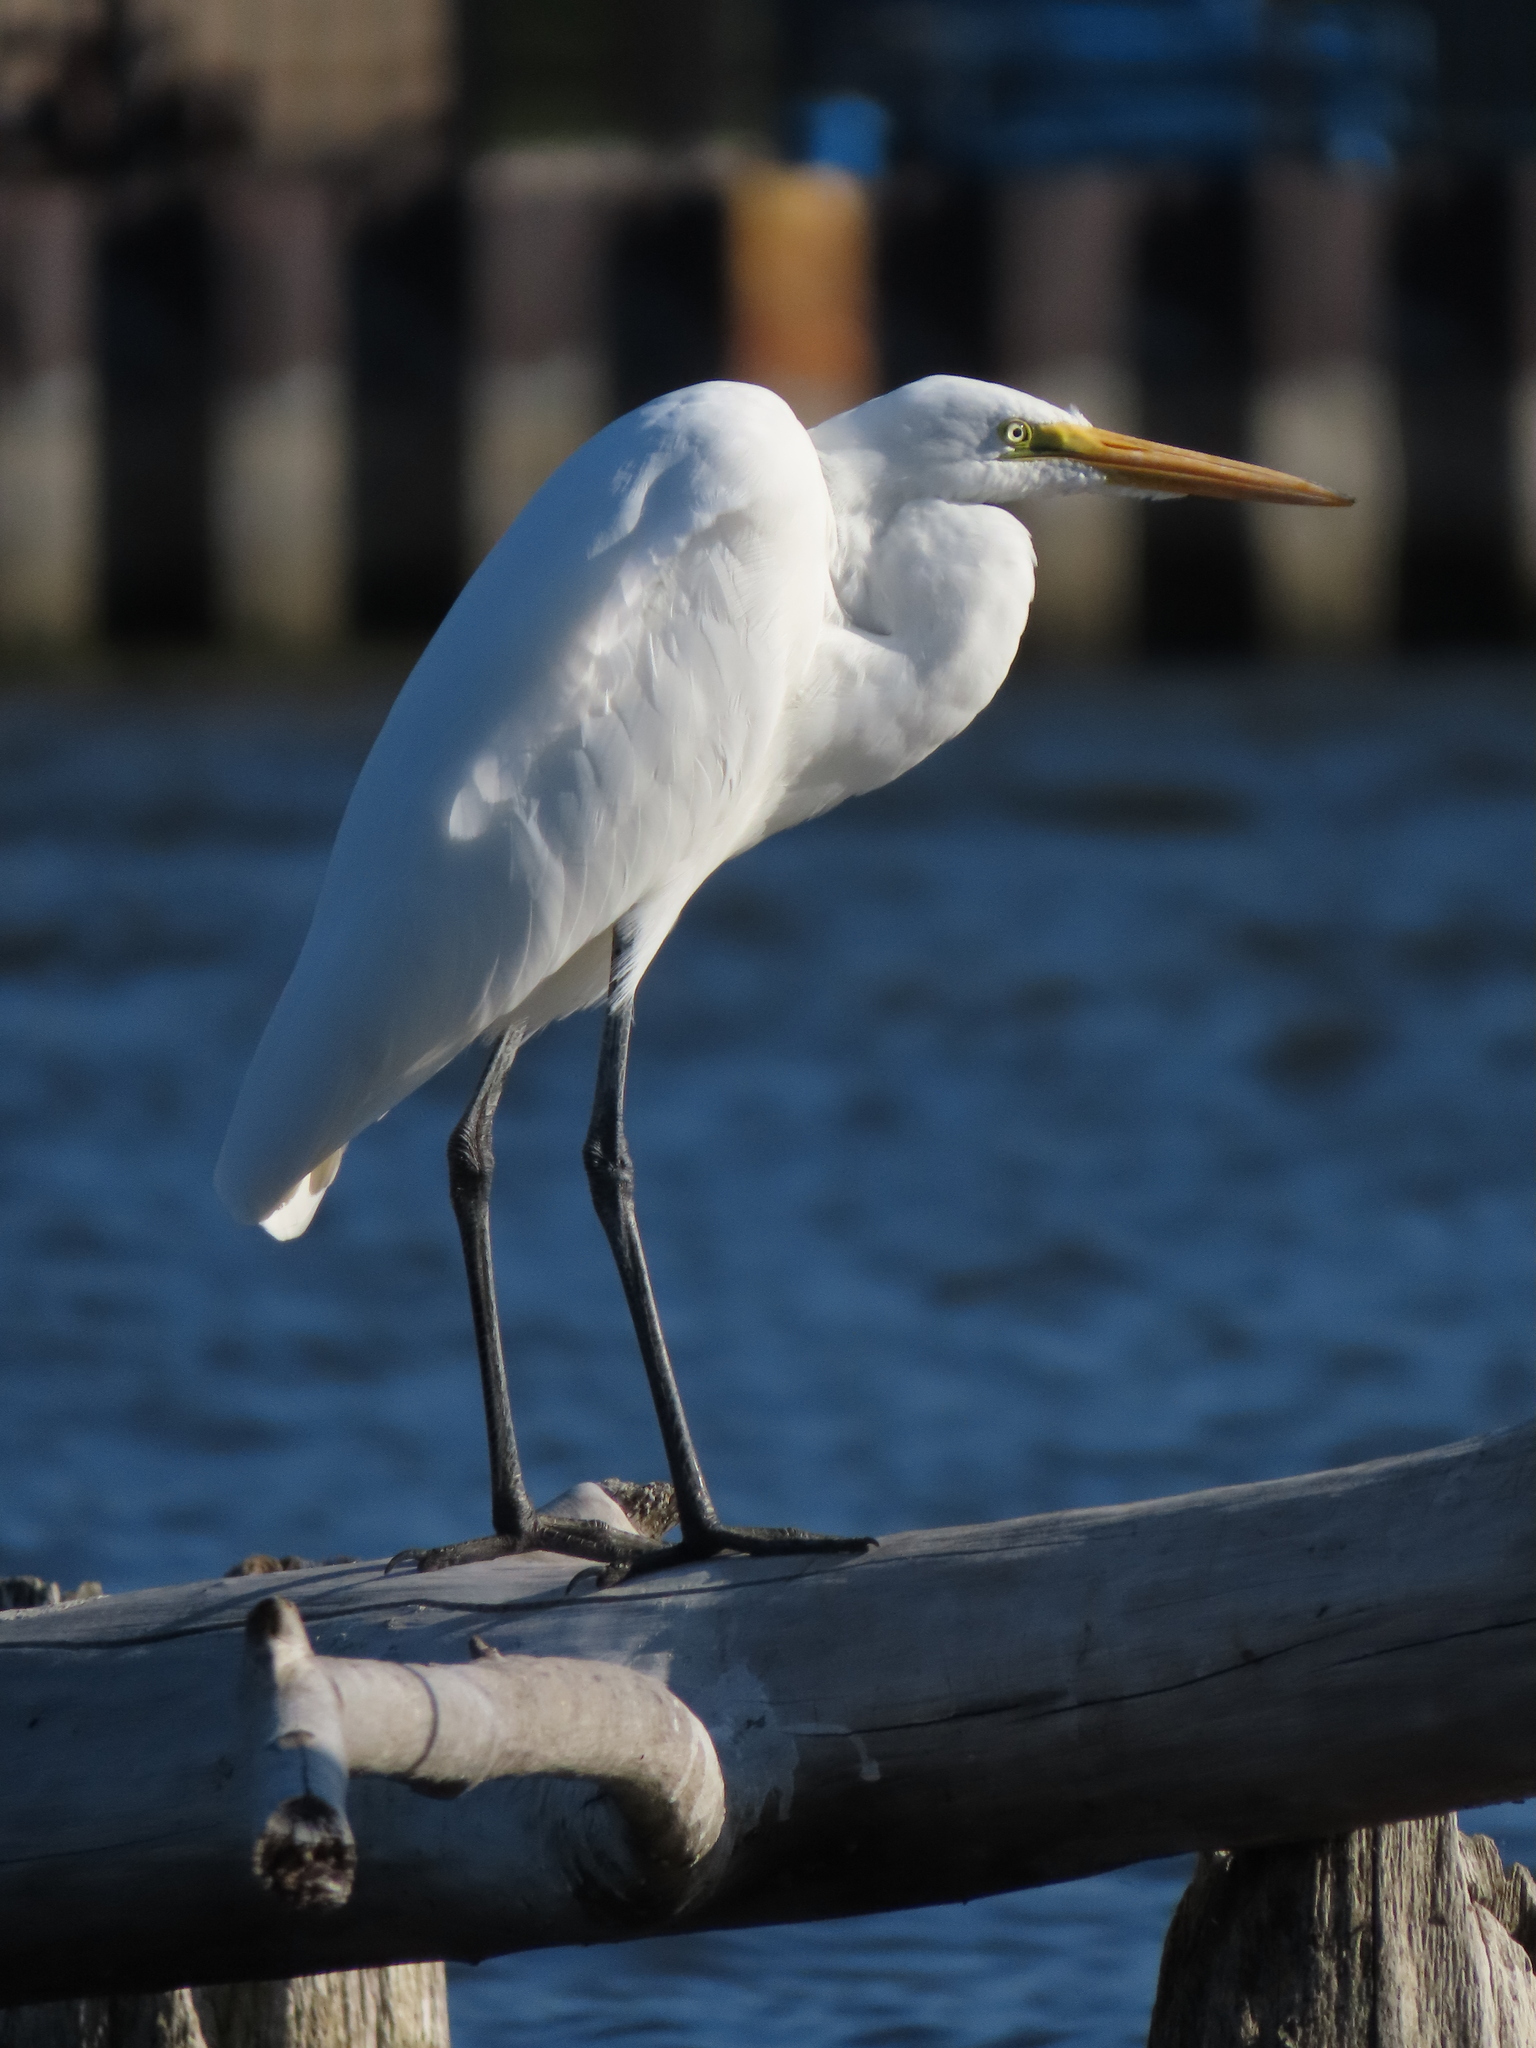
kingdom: Animalia
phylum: Chordata
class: Aves
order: Pelecaniformes
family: Ardeidae
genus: Ardea
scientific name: Ardea alba
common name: Great egret
